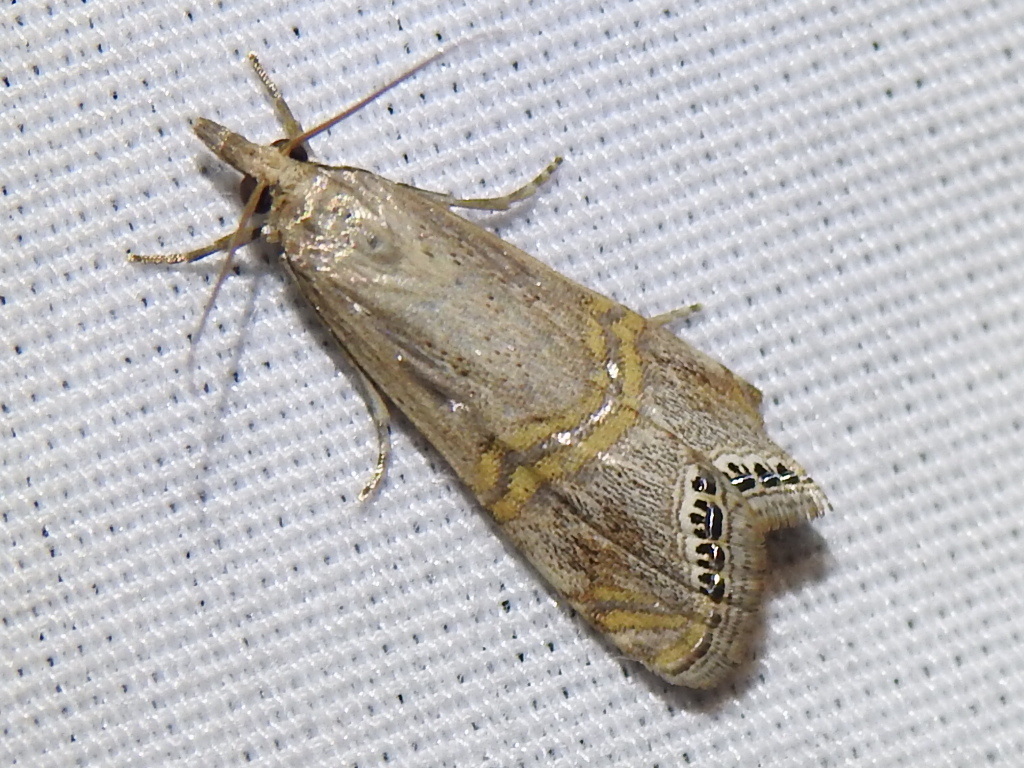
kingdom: Animalia
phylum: Arthropoda
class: Insecta
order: Lepidoptera
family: Crambidae
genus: Euchromius
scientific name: Euchromius ocellea
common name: Necklace veneer moth
